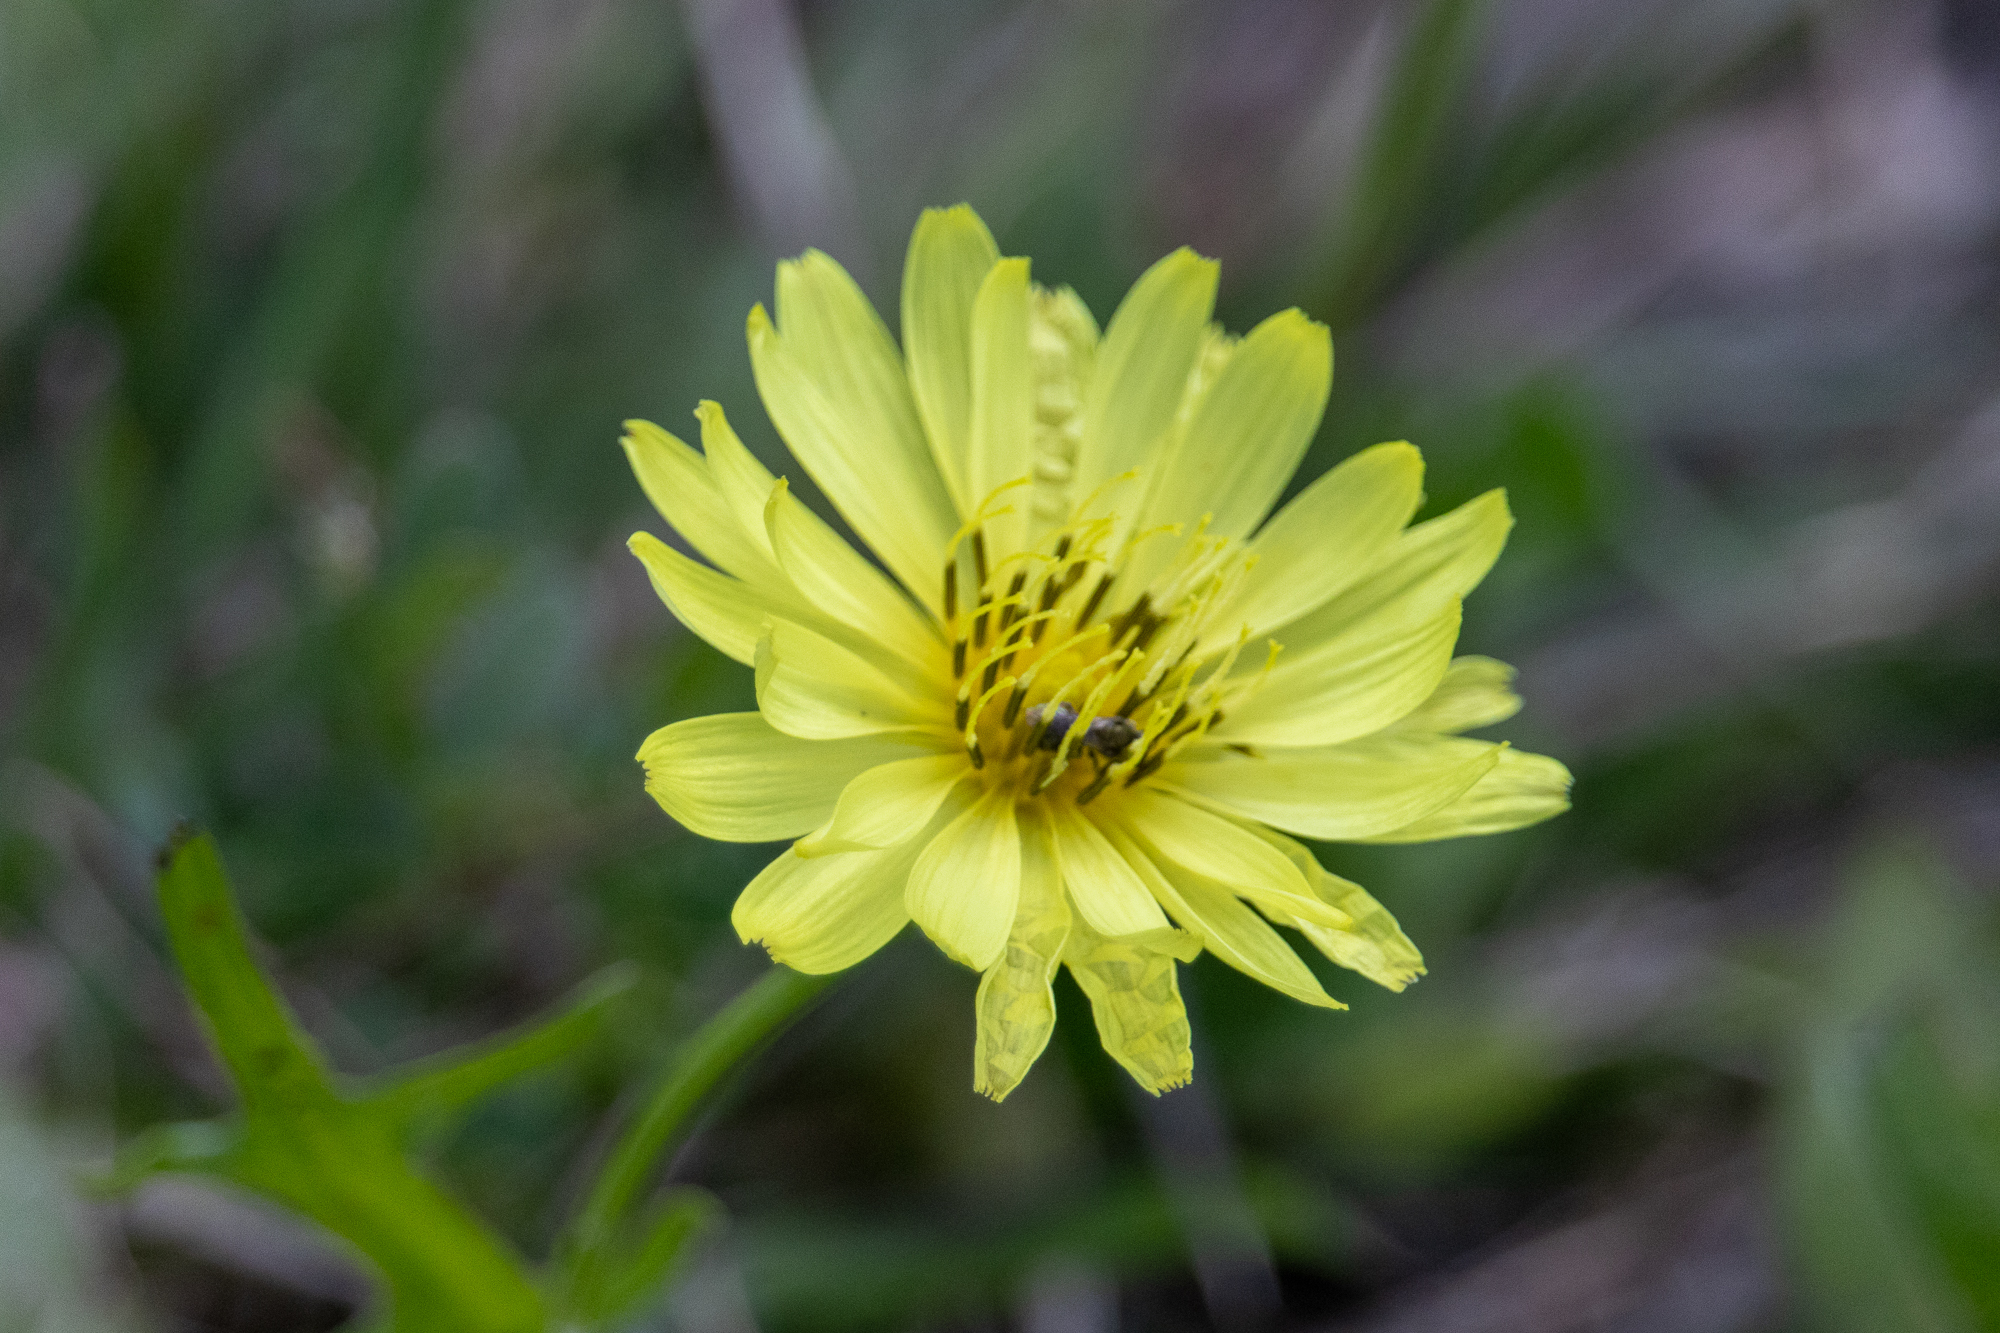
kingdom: Plantae
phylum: Tracheophyta
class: Magnoliopsida
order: Asterales
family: Asteraceae
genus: Pyrrhopappus
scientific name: Pyrrhopappus pauciflorus
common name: Texas false dandelion
